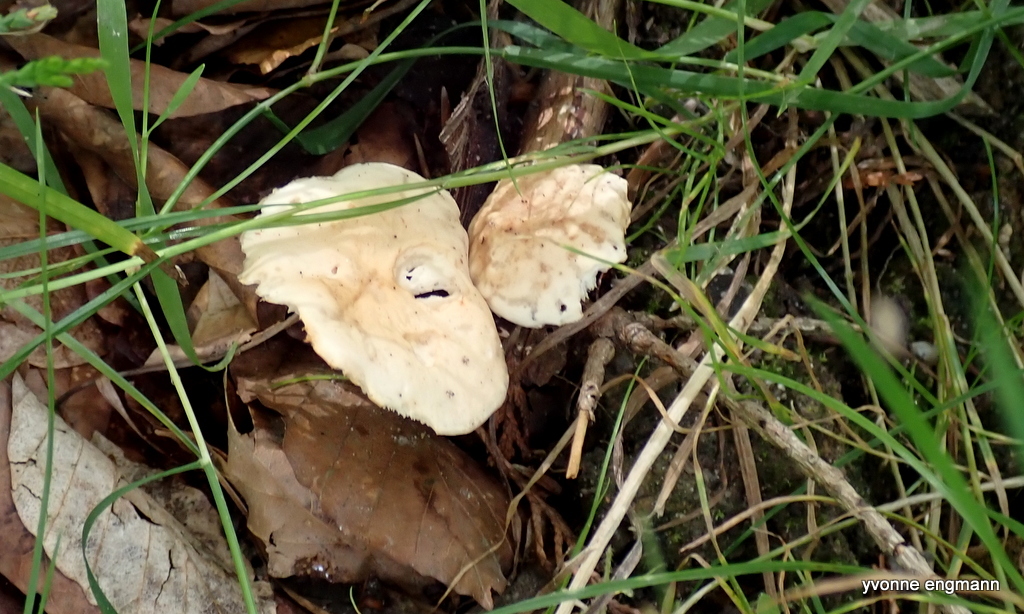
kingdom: Fungi
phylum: Basidiomycota
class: Agaricomycetes
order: Agaricales
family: Omphalotaceae
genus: Gymnopus
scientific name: Gymnopus aquosus
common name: Watery toughshank
